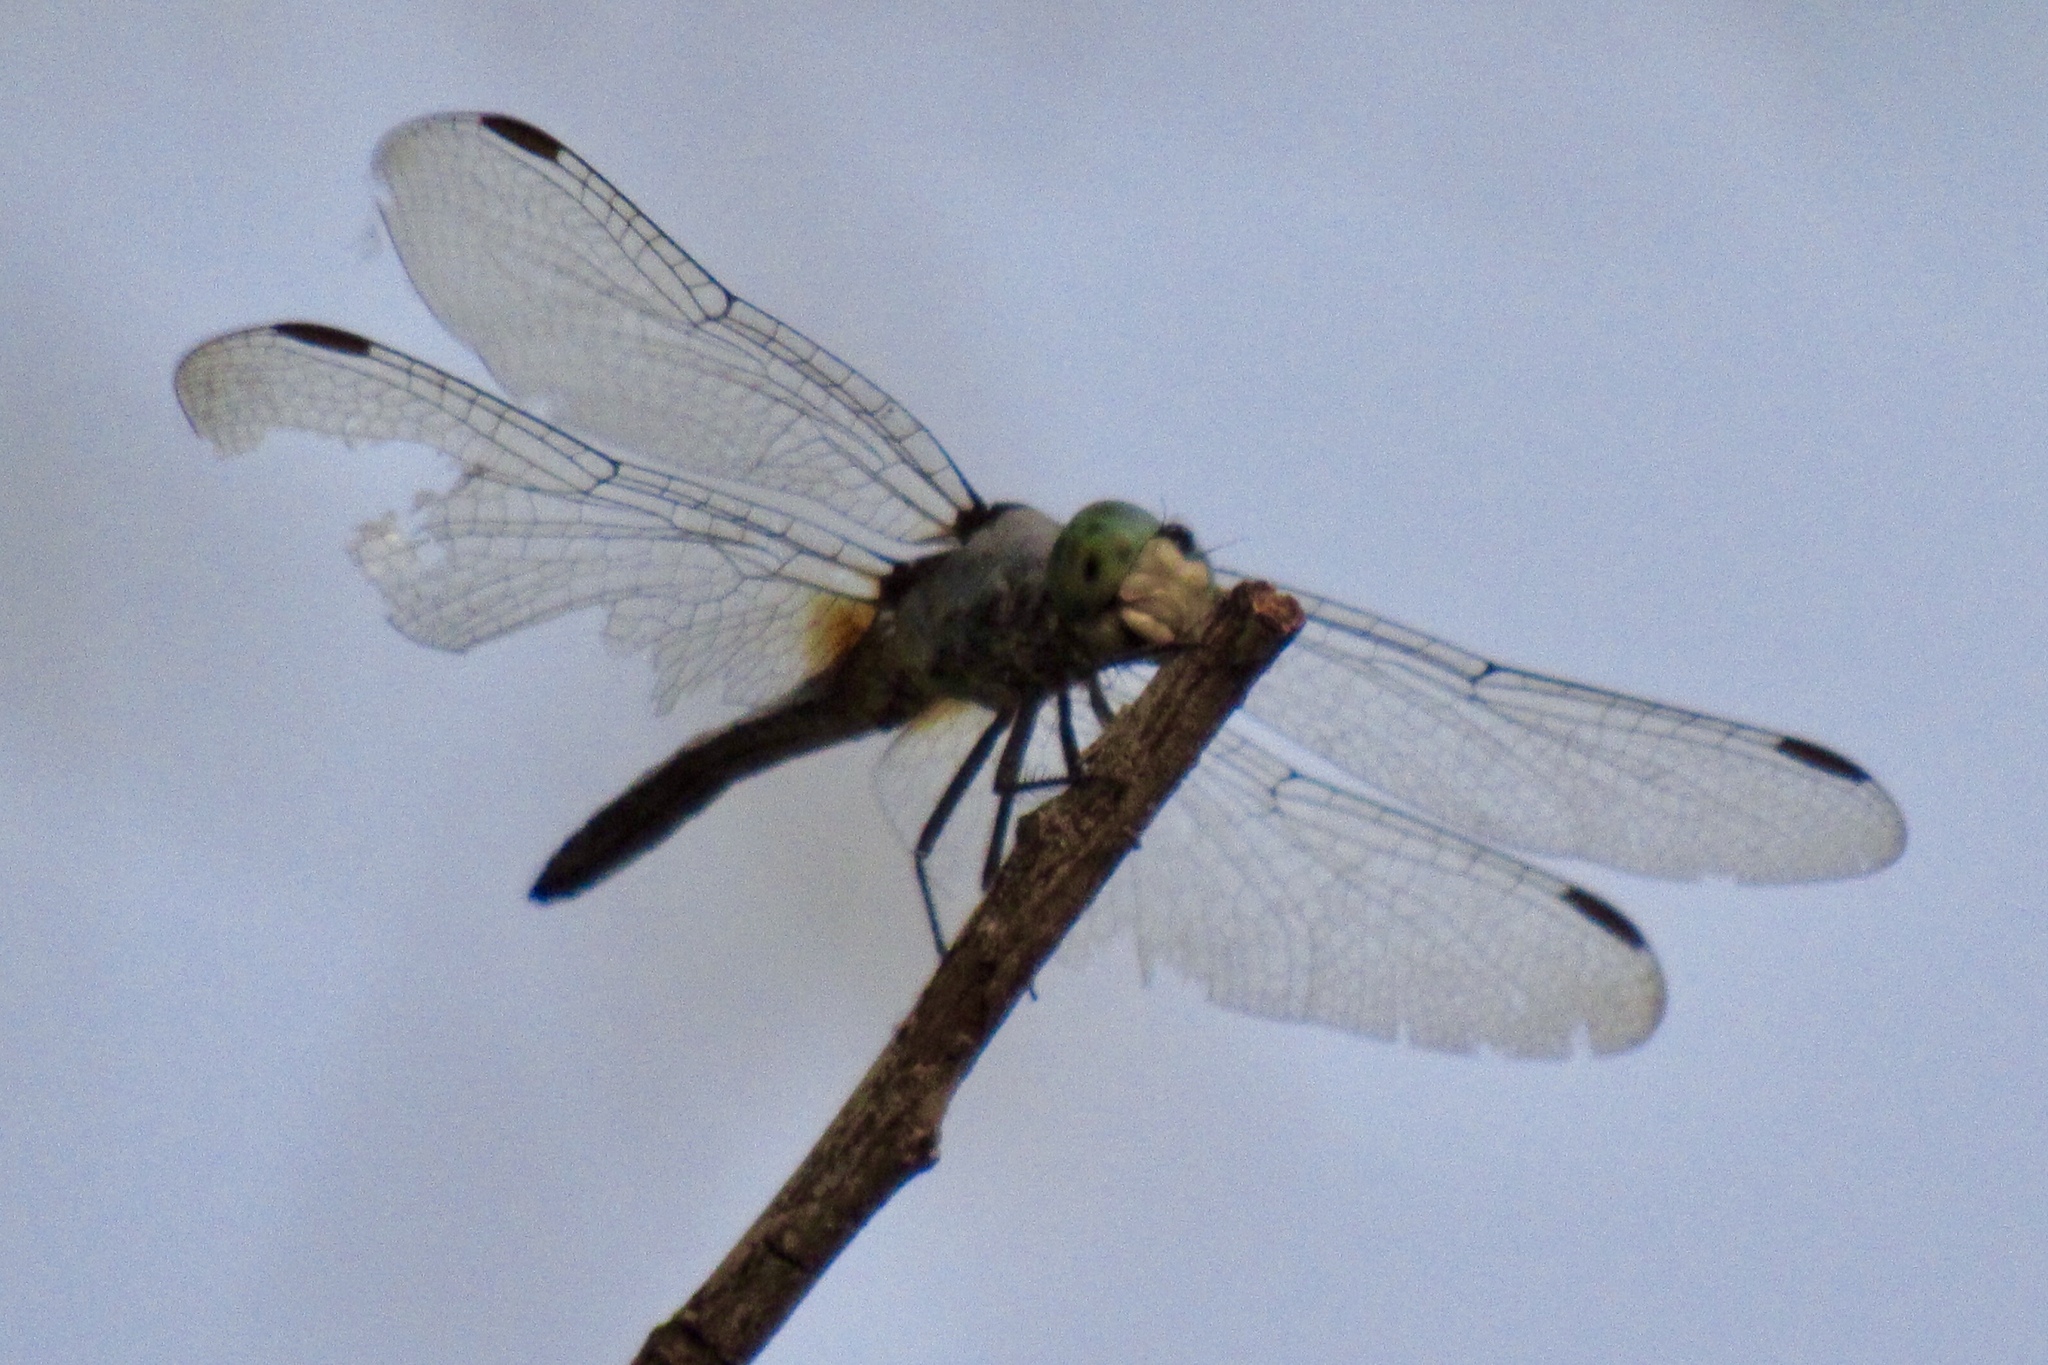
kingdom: Animalia
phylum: Arthropoda
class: Insecta
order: Odonata
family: Libellulidae
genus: Pachydiplax
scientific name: Pachydiplax longipennis
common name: Blue dasher
